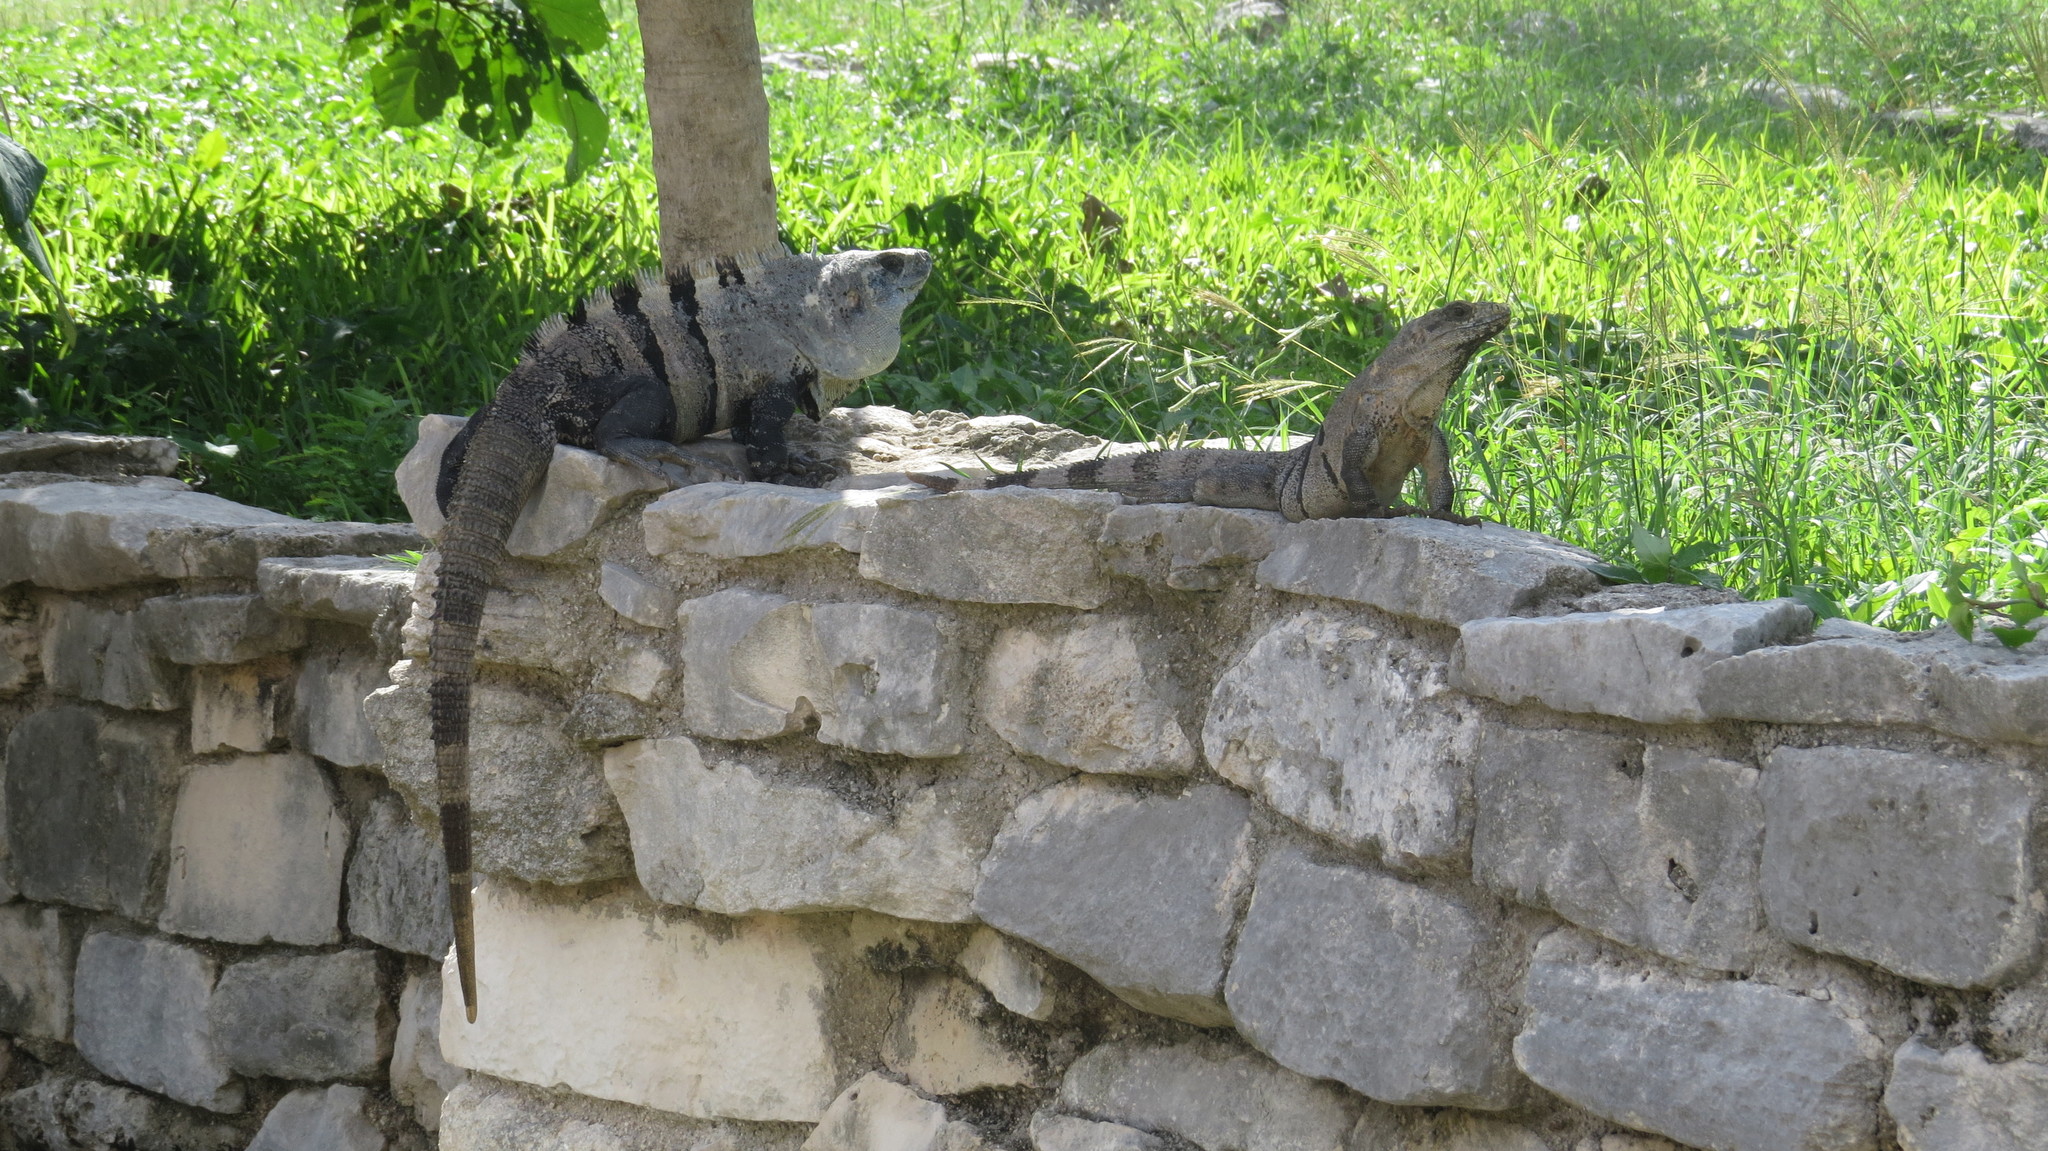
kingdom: Animalia
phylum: Chordata
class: Squamata
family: Iguanidae
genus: Ctenosaura
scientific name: Ctenosaura similis
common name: Black spiny-tailed iguana
